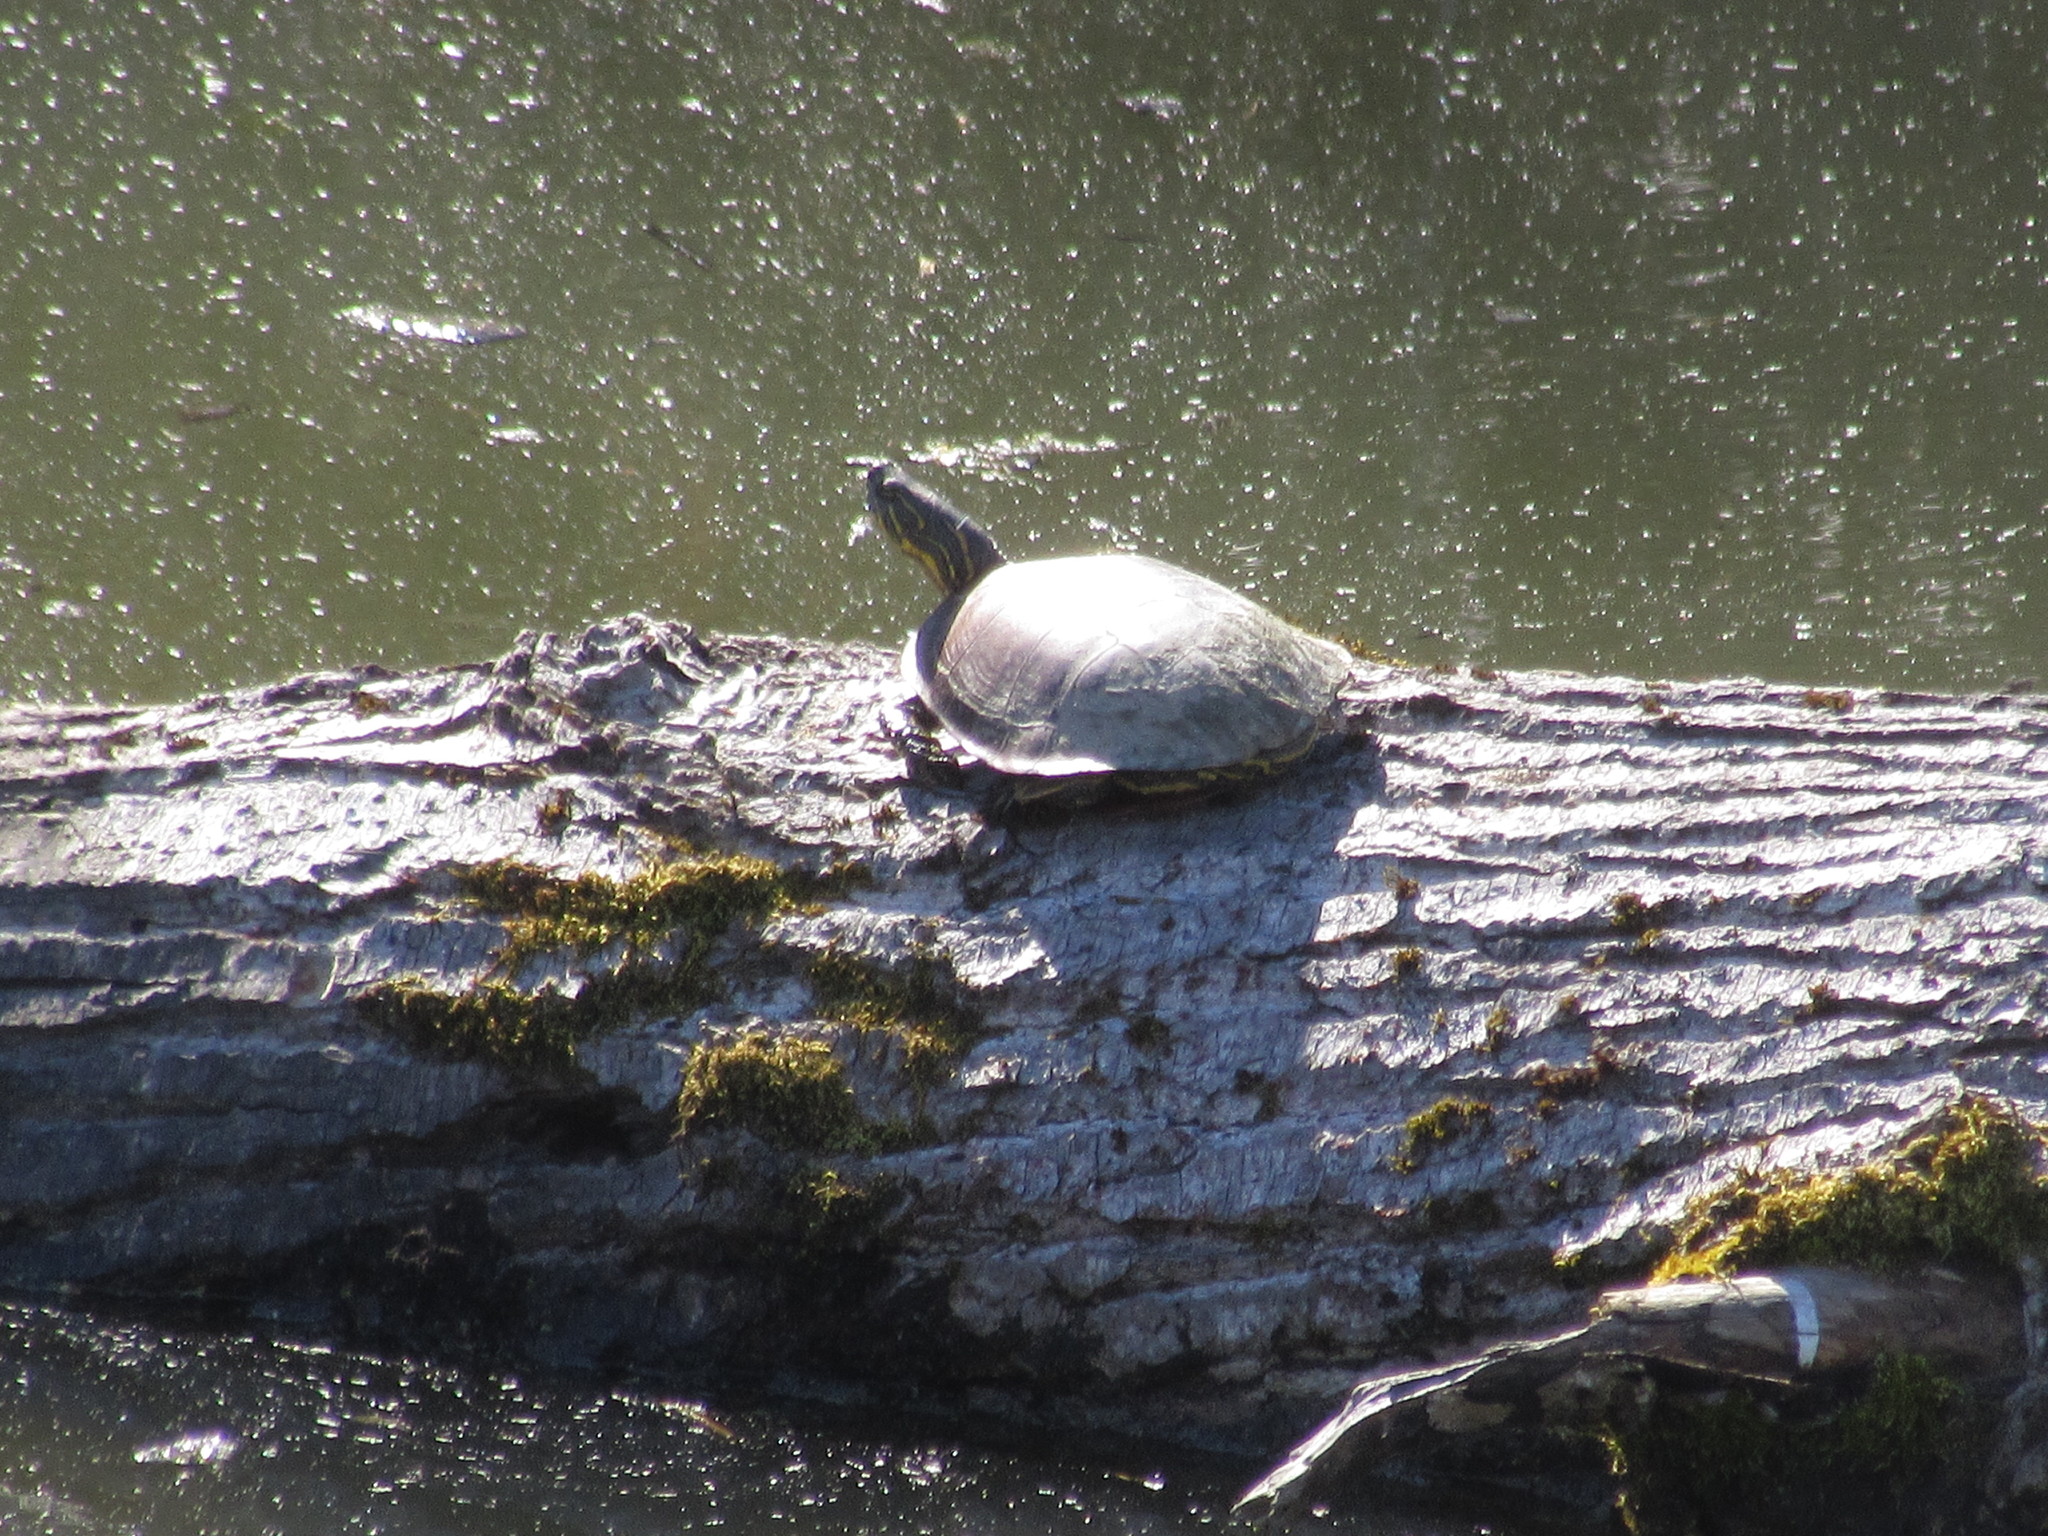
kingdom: Animalia
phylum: Chordata
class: Testudines
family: Emydidae
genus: Chrysemys
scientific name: Chrysemys picta
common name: Painted turtle
